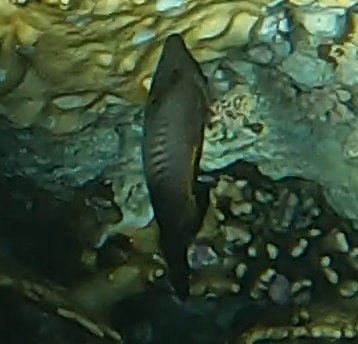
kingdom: Animalia
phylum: Chordata
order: Tetraodontiformes
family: Monacanthidae
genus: Amanses
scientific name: Amanses scopas
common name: Broom filefish
